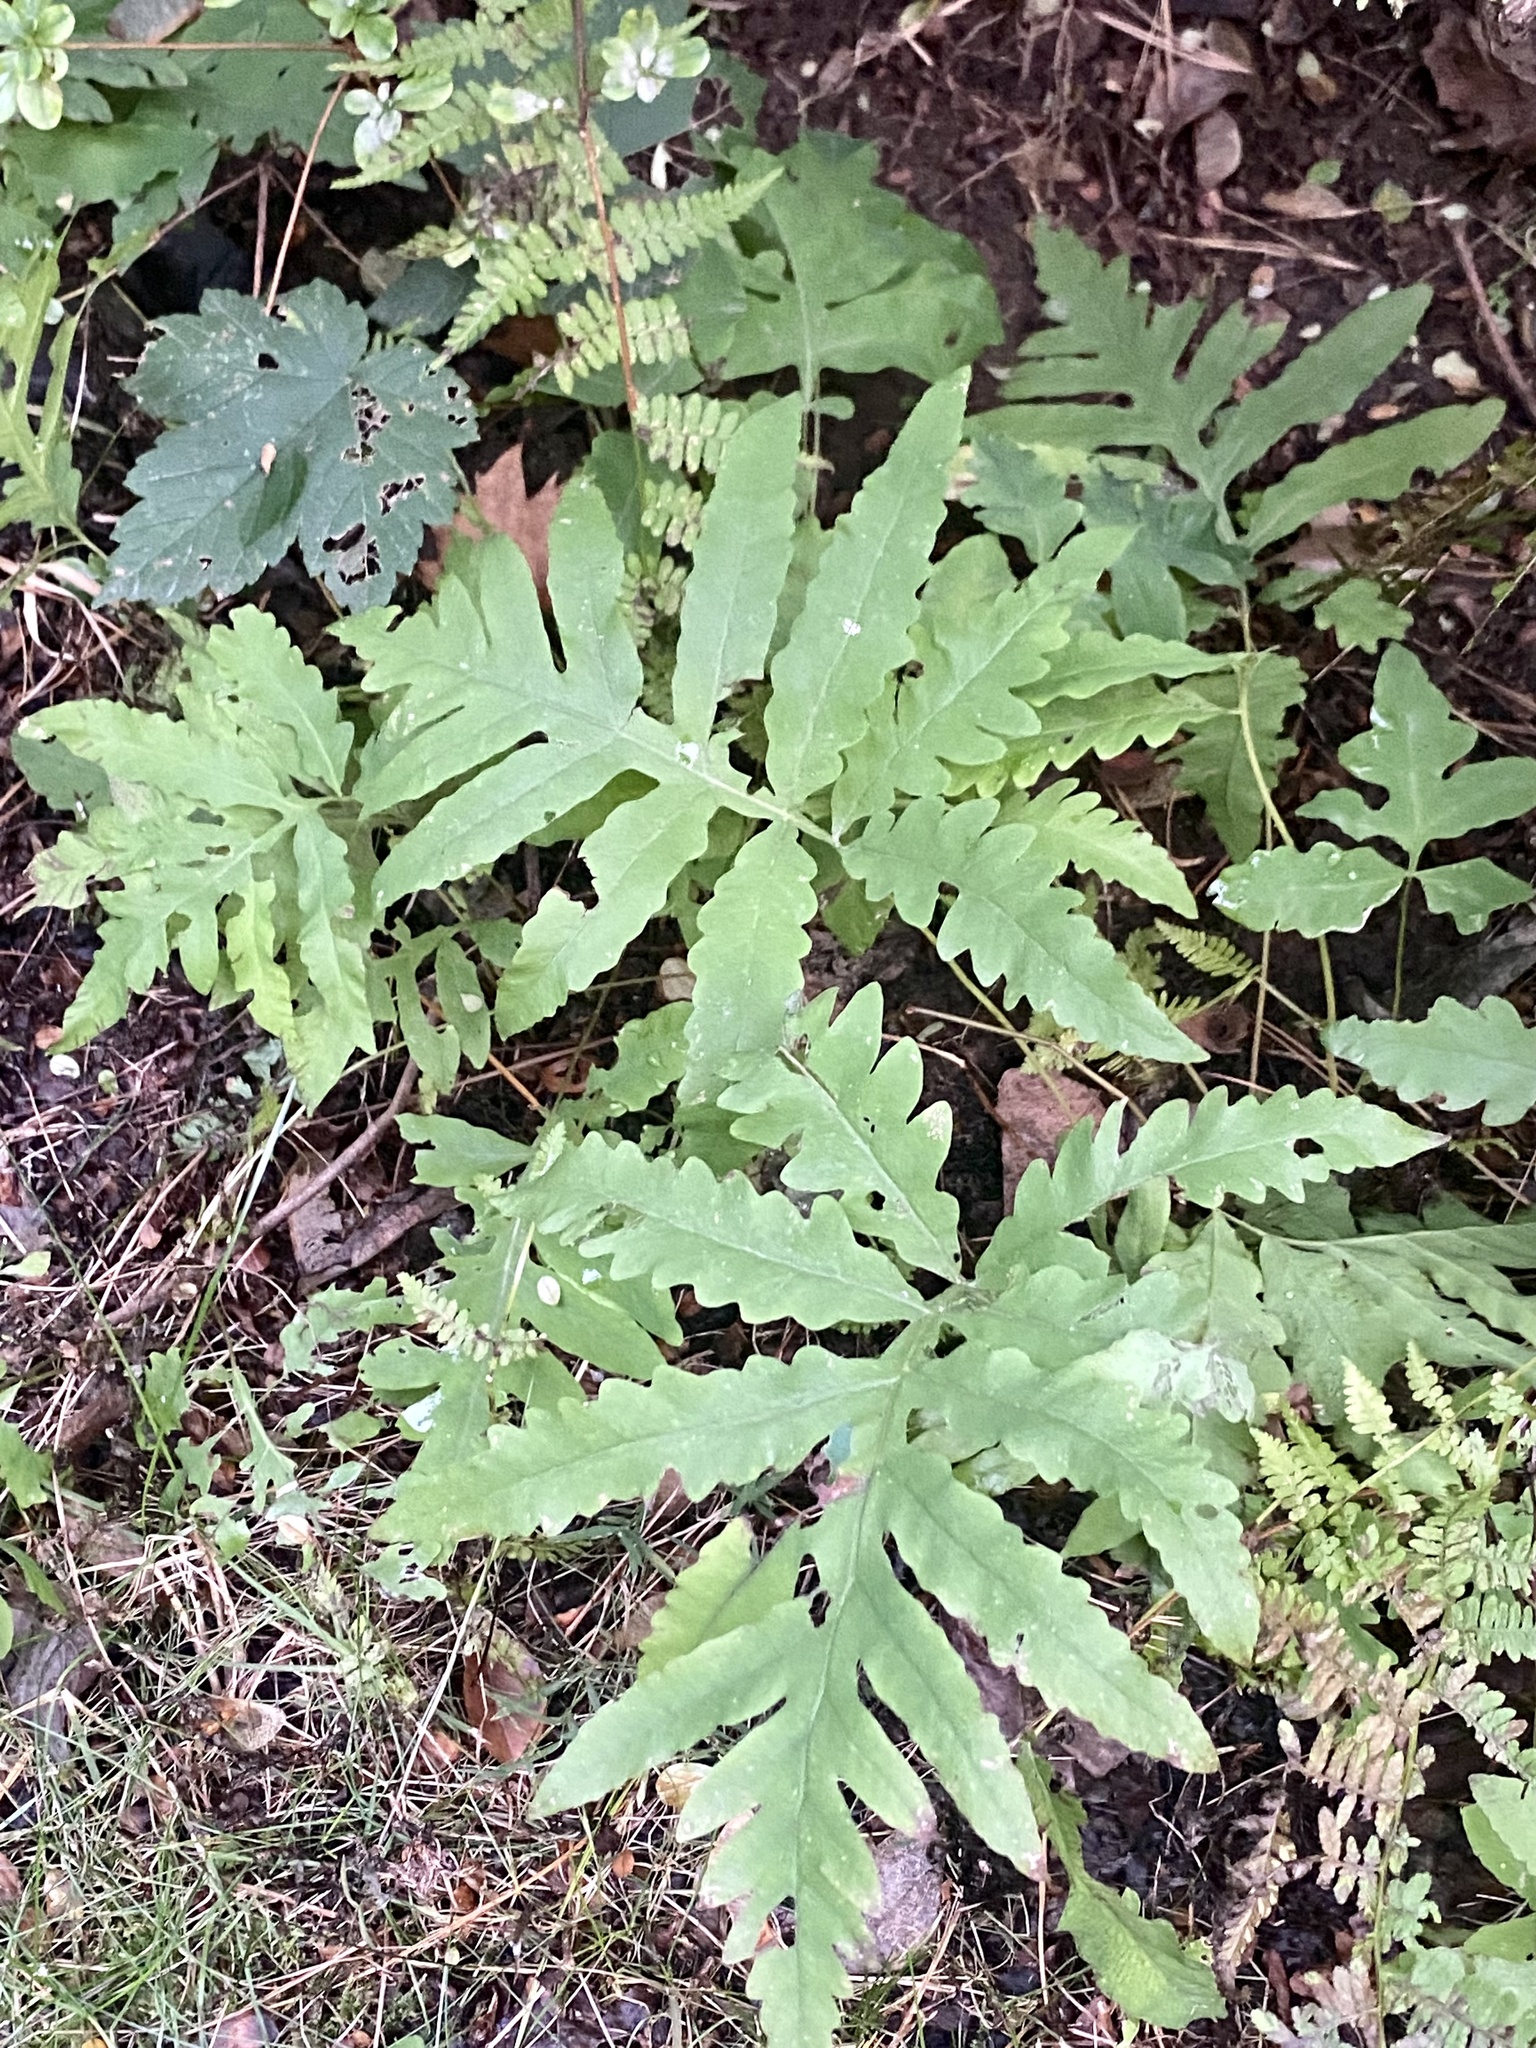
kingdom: Plantae
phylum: Tracheophyta
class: Polypodiopsida
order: Polypodiales
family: Onocleaceae
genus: Onoclea
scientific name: Onoclea sensibilis
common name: Sensitive fern
